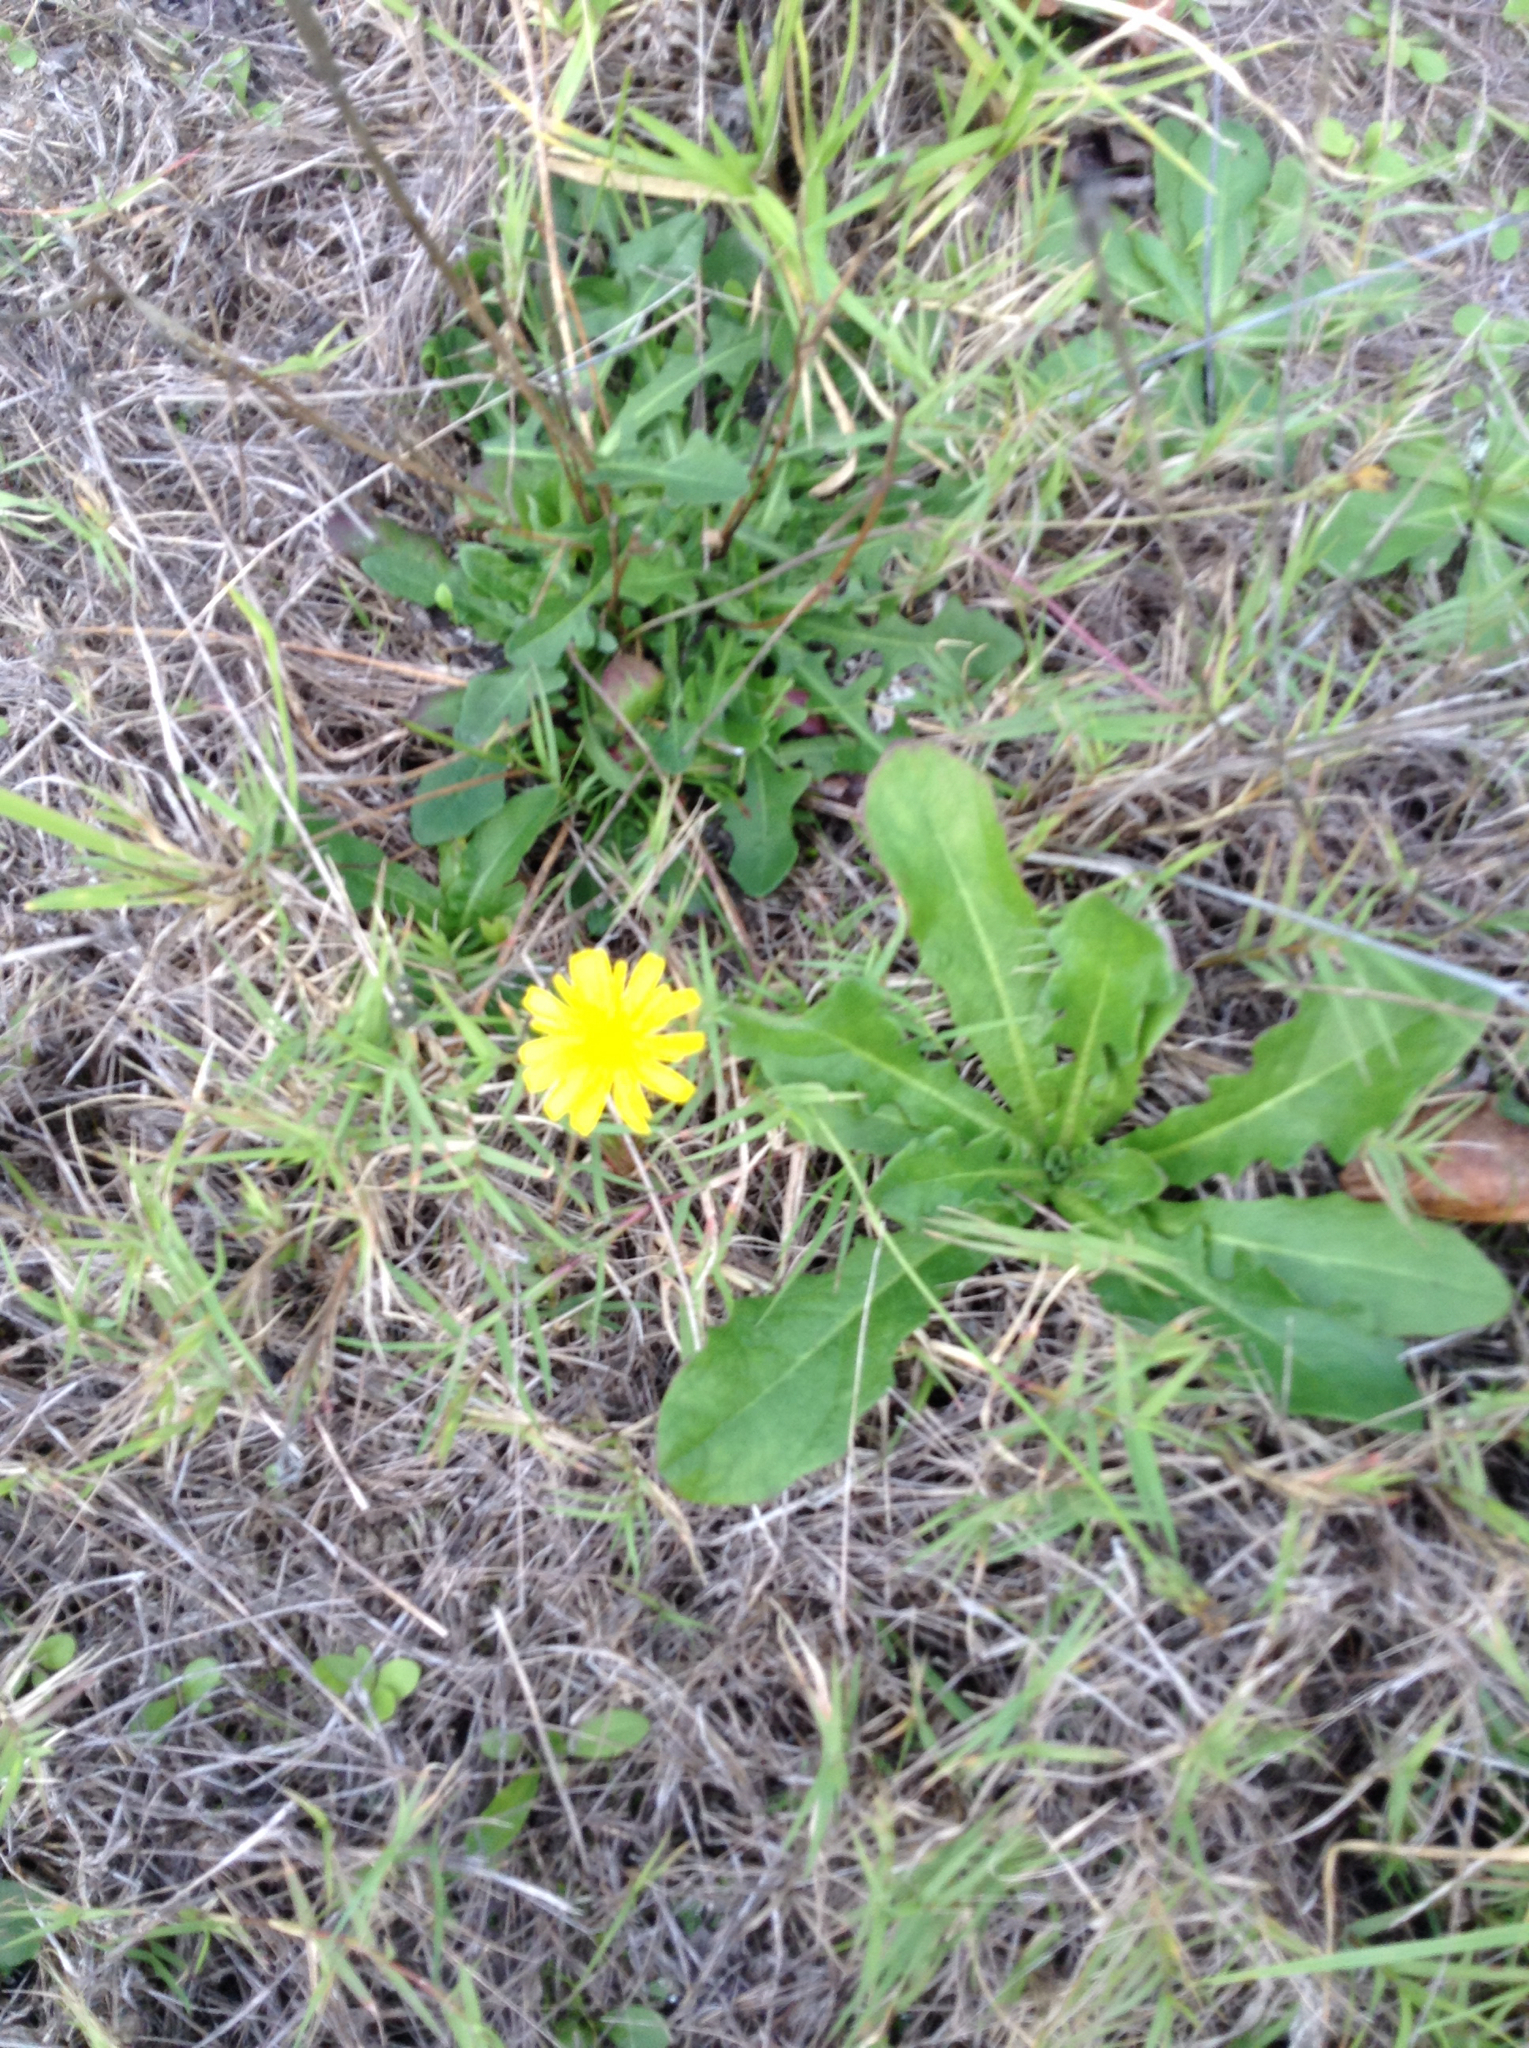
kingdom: Plantae
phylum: Tracheophyta
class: Magnoliopsida
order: Asterales
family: Asteraceae
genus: Hypochaeris
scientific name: Hypochaeris radicata
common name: Flatweed
